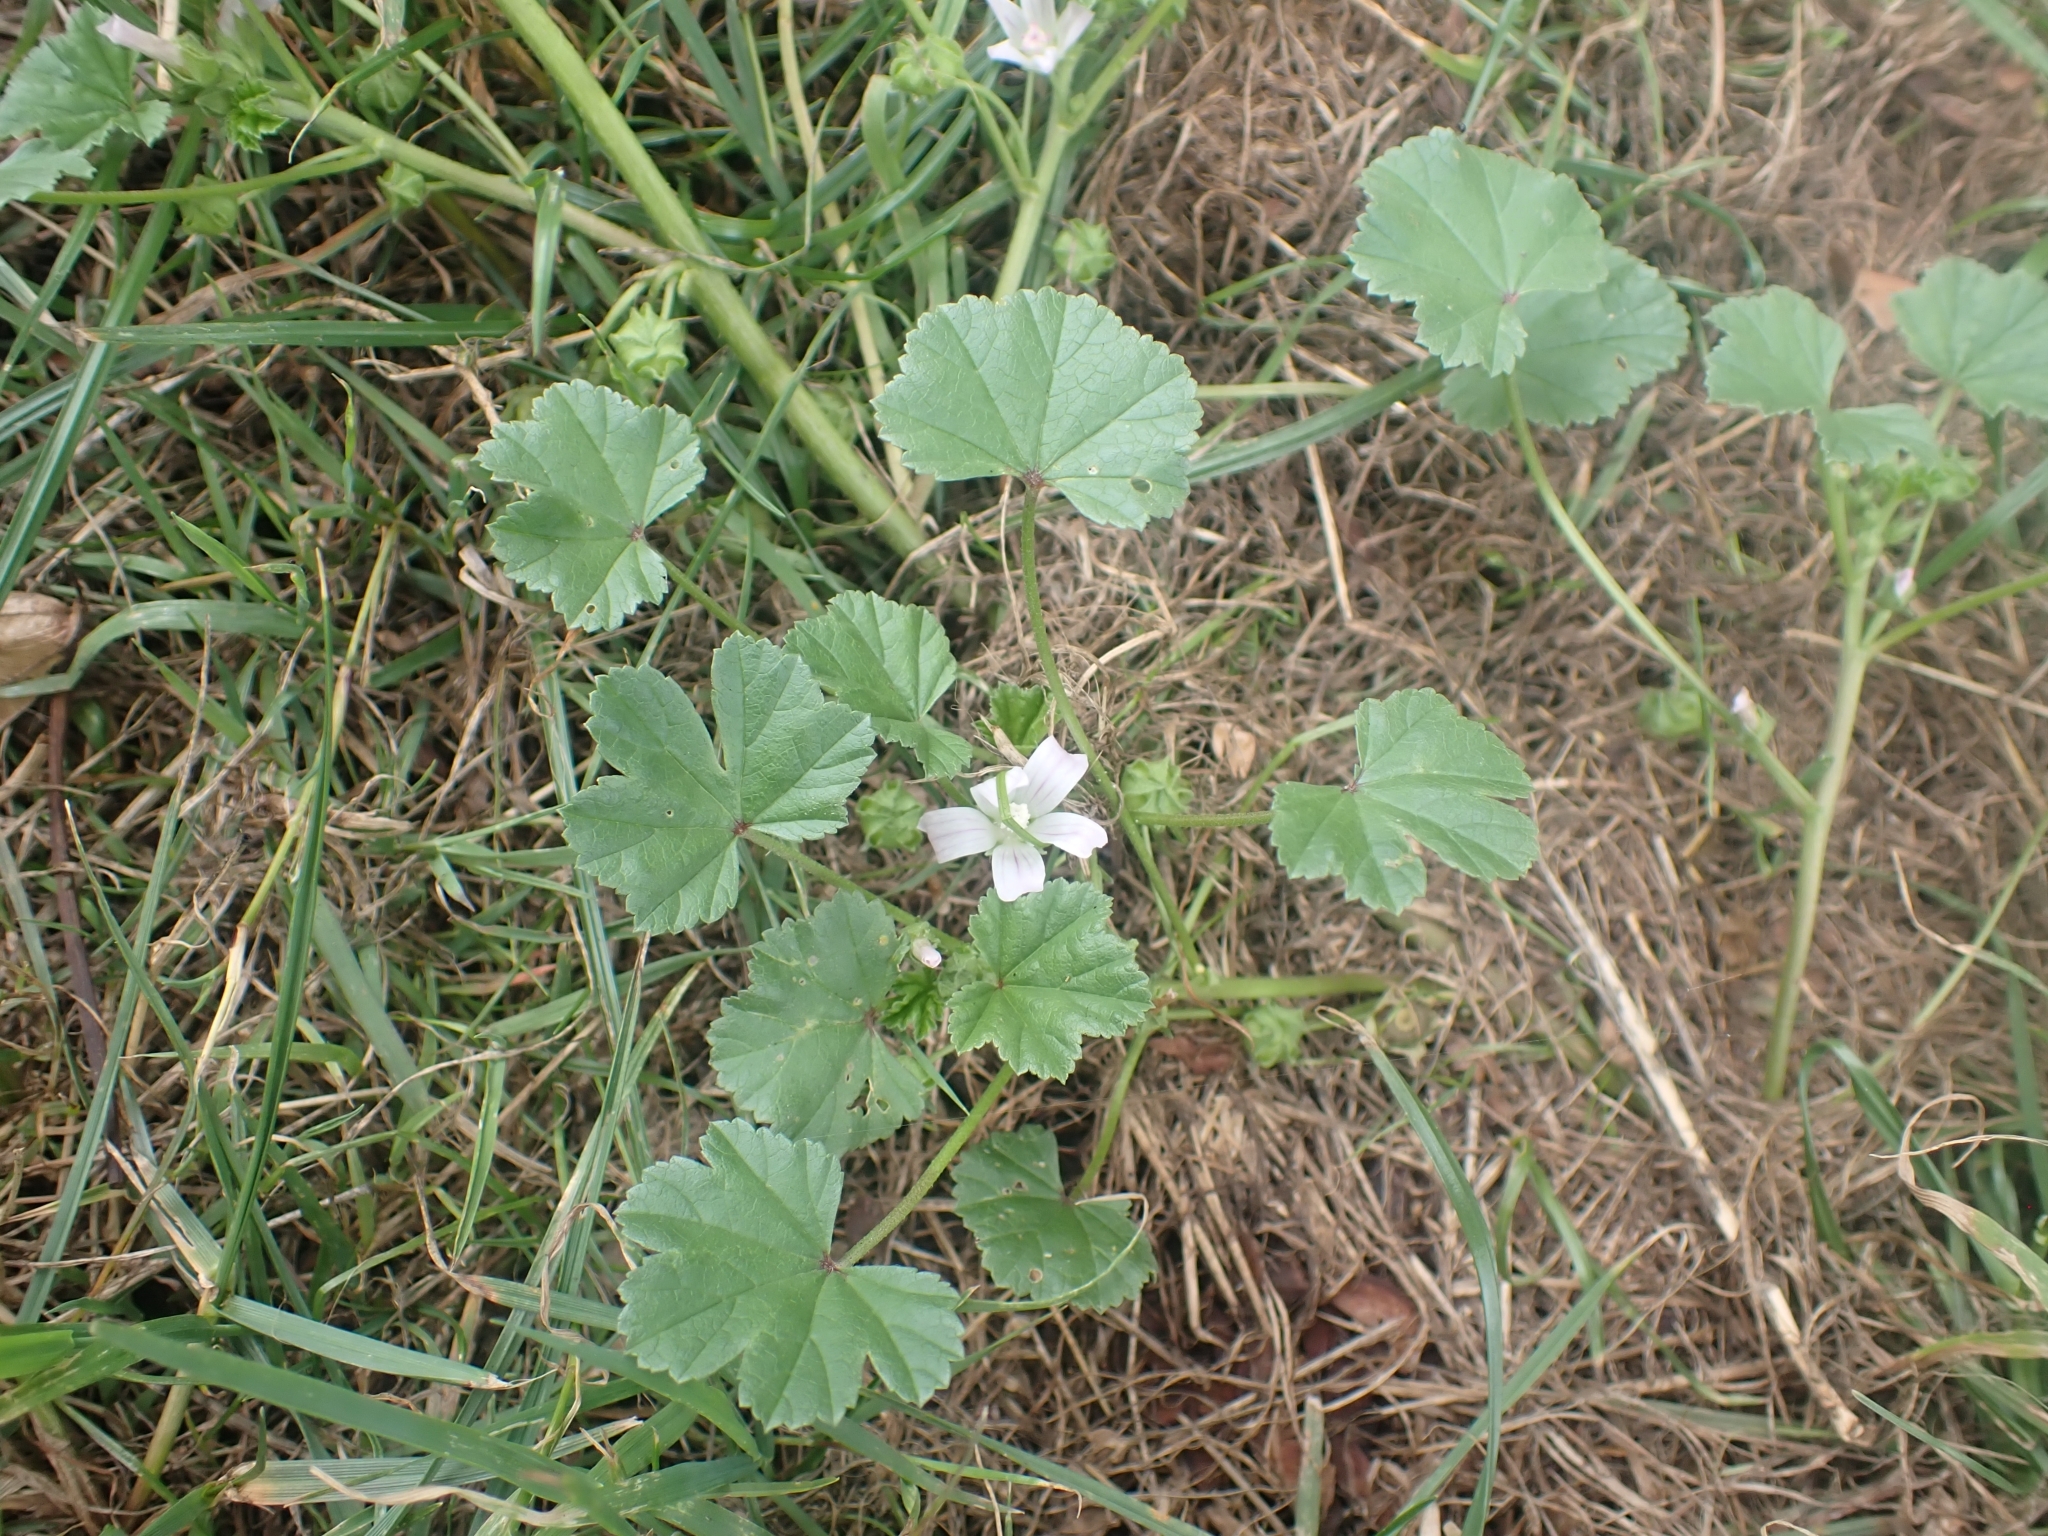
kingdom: Plantae
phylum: Tracheophyta
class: Magnoliopsida
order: Malvales
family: Malvaceae
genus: Malva
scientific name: Malva neglecta
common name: Common mallow
